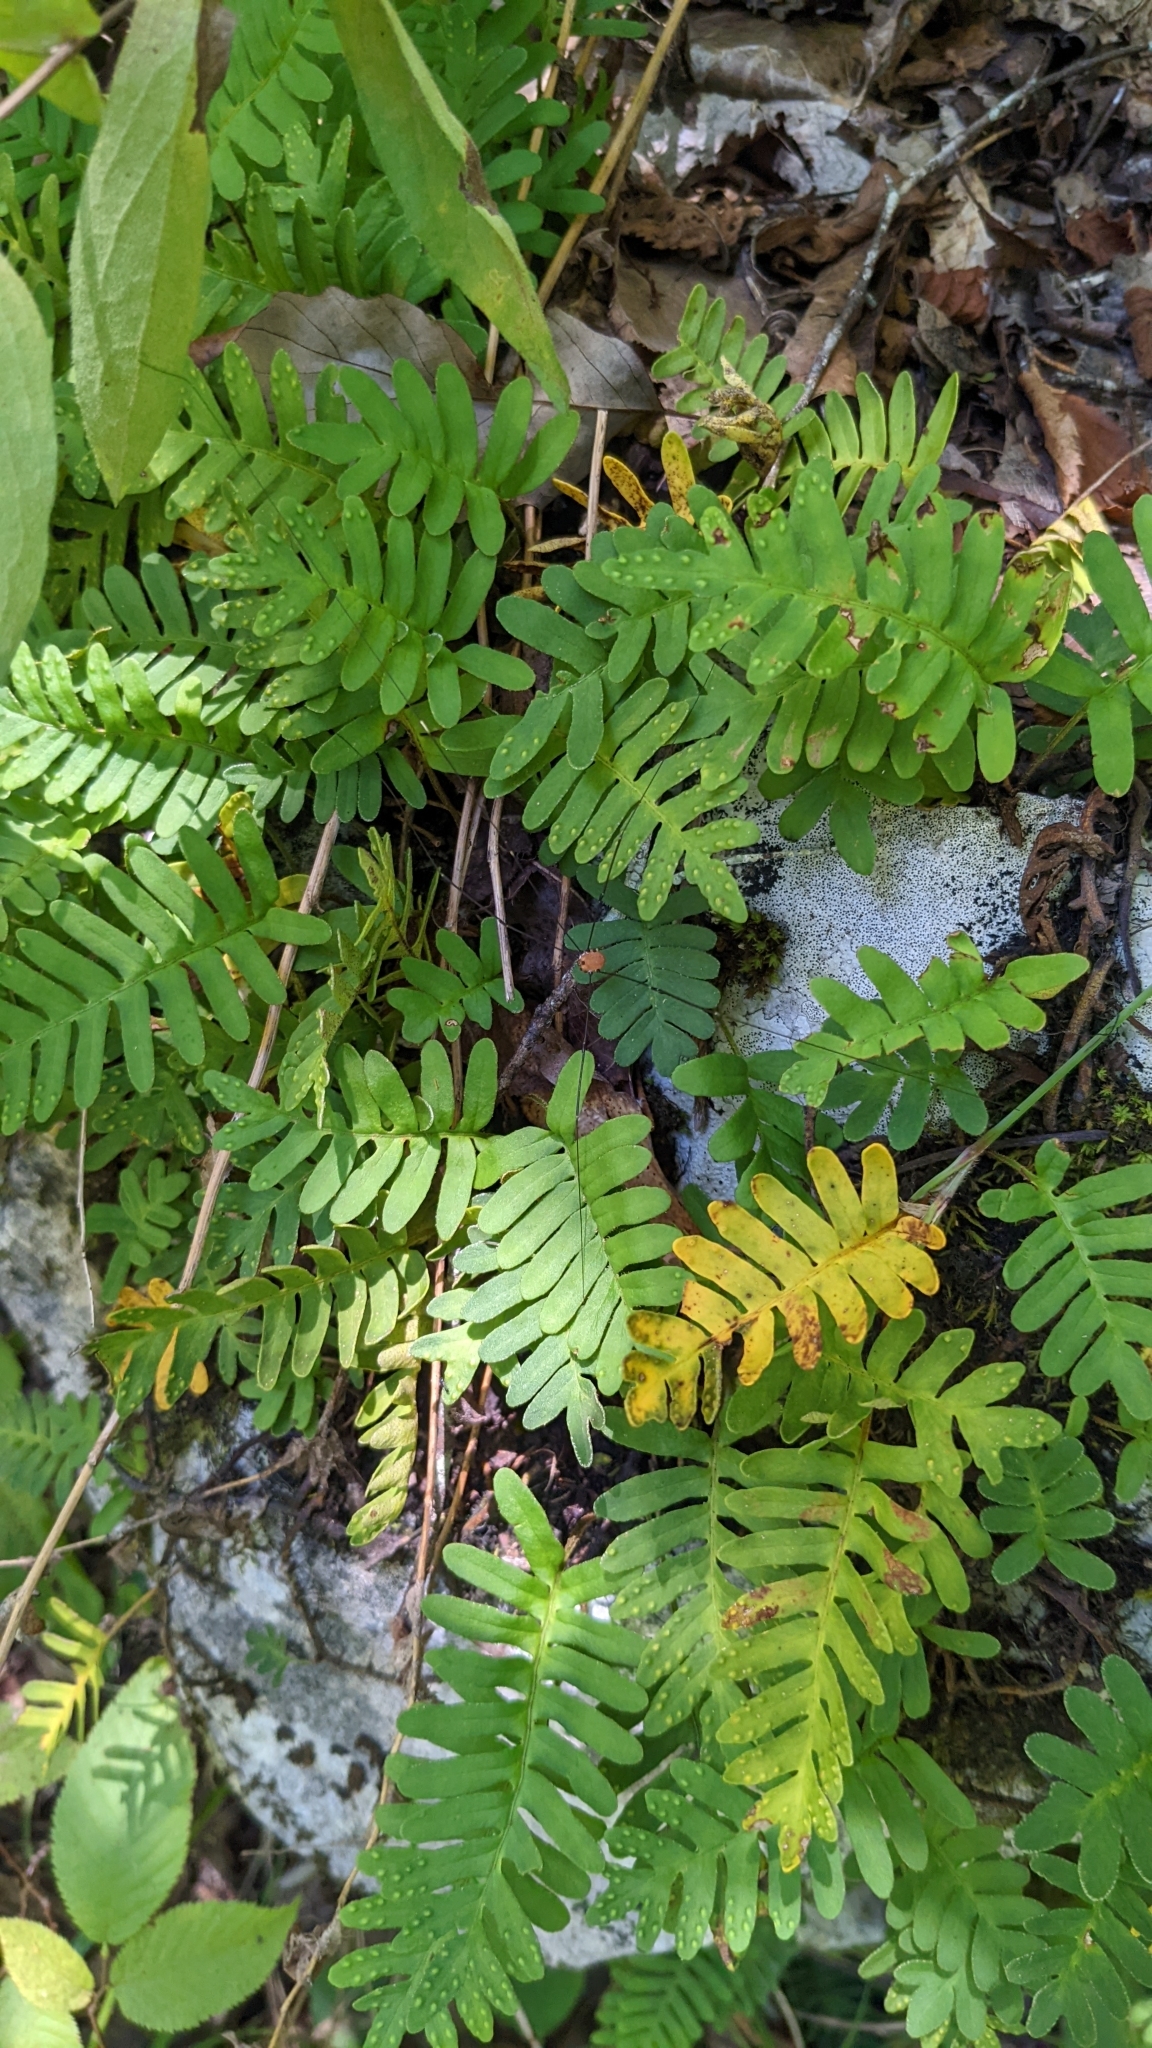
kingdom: Plantae
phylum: Tracheophyta
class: Polypodiopsida
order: Polypodiales
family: Polypodiaceae
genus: Pleopeltis
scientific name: Pleopeltis michauxiana
